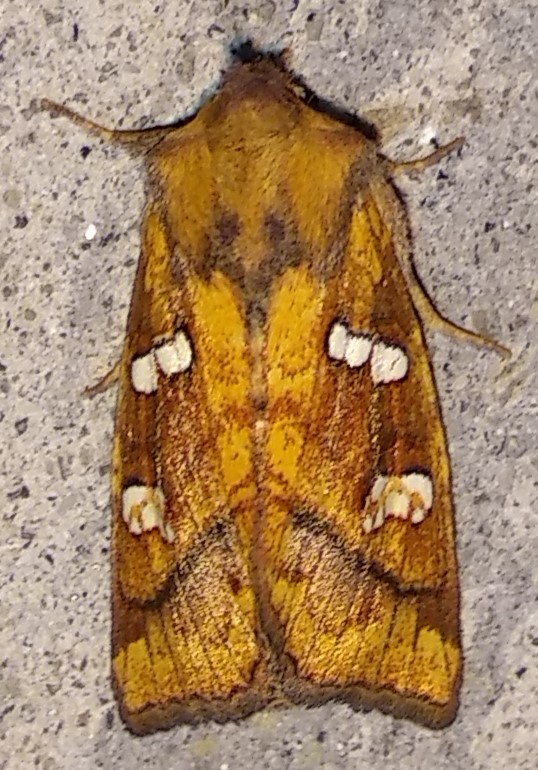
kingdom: Animalia
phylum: Arthropoda
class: Insecta
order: Lepidoptera
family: Noctuidae
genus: Papaipema
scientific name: Papaipema pterisii
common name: Bracken borer moth
